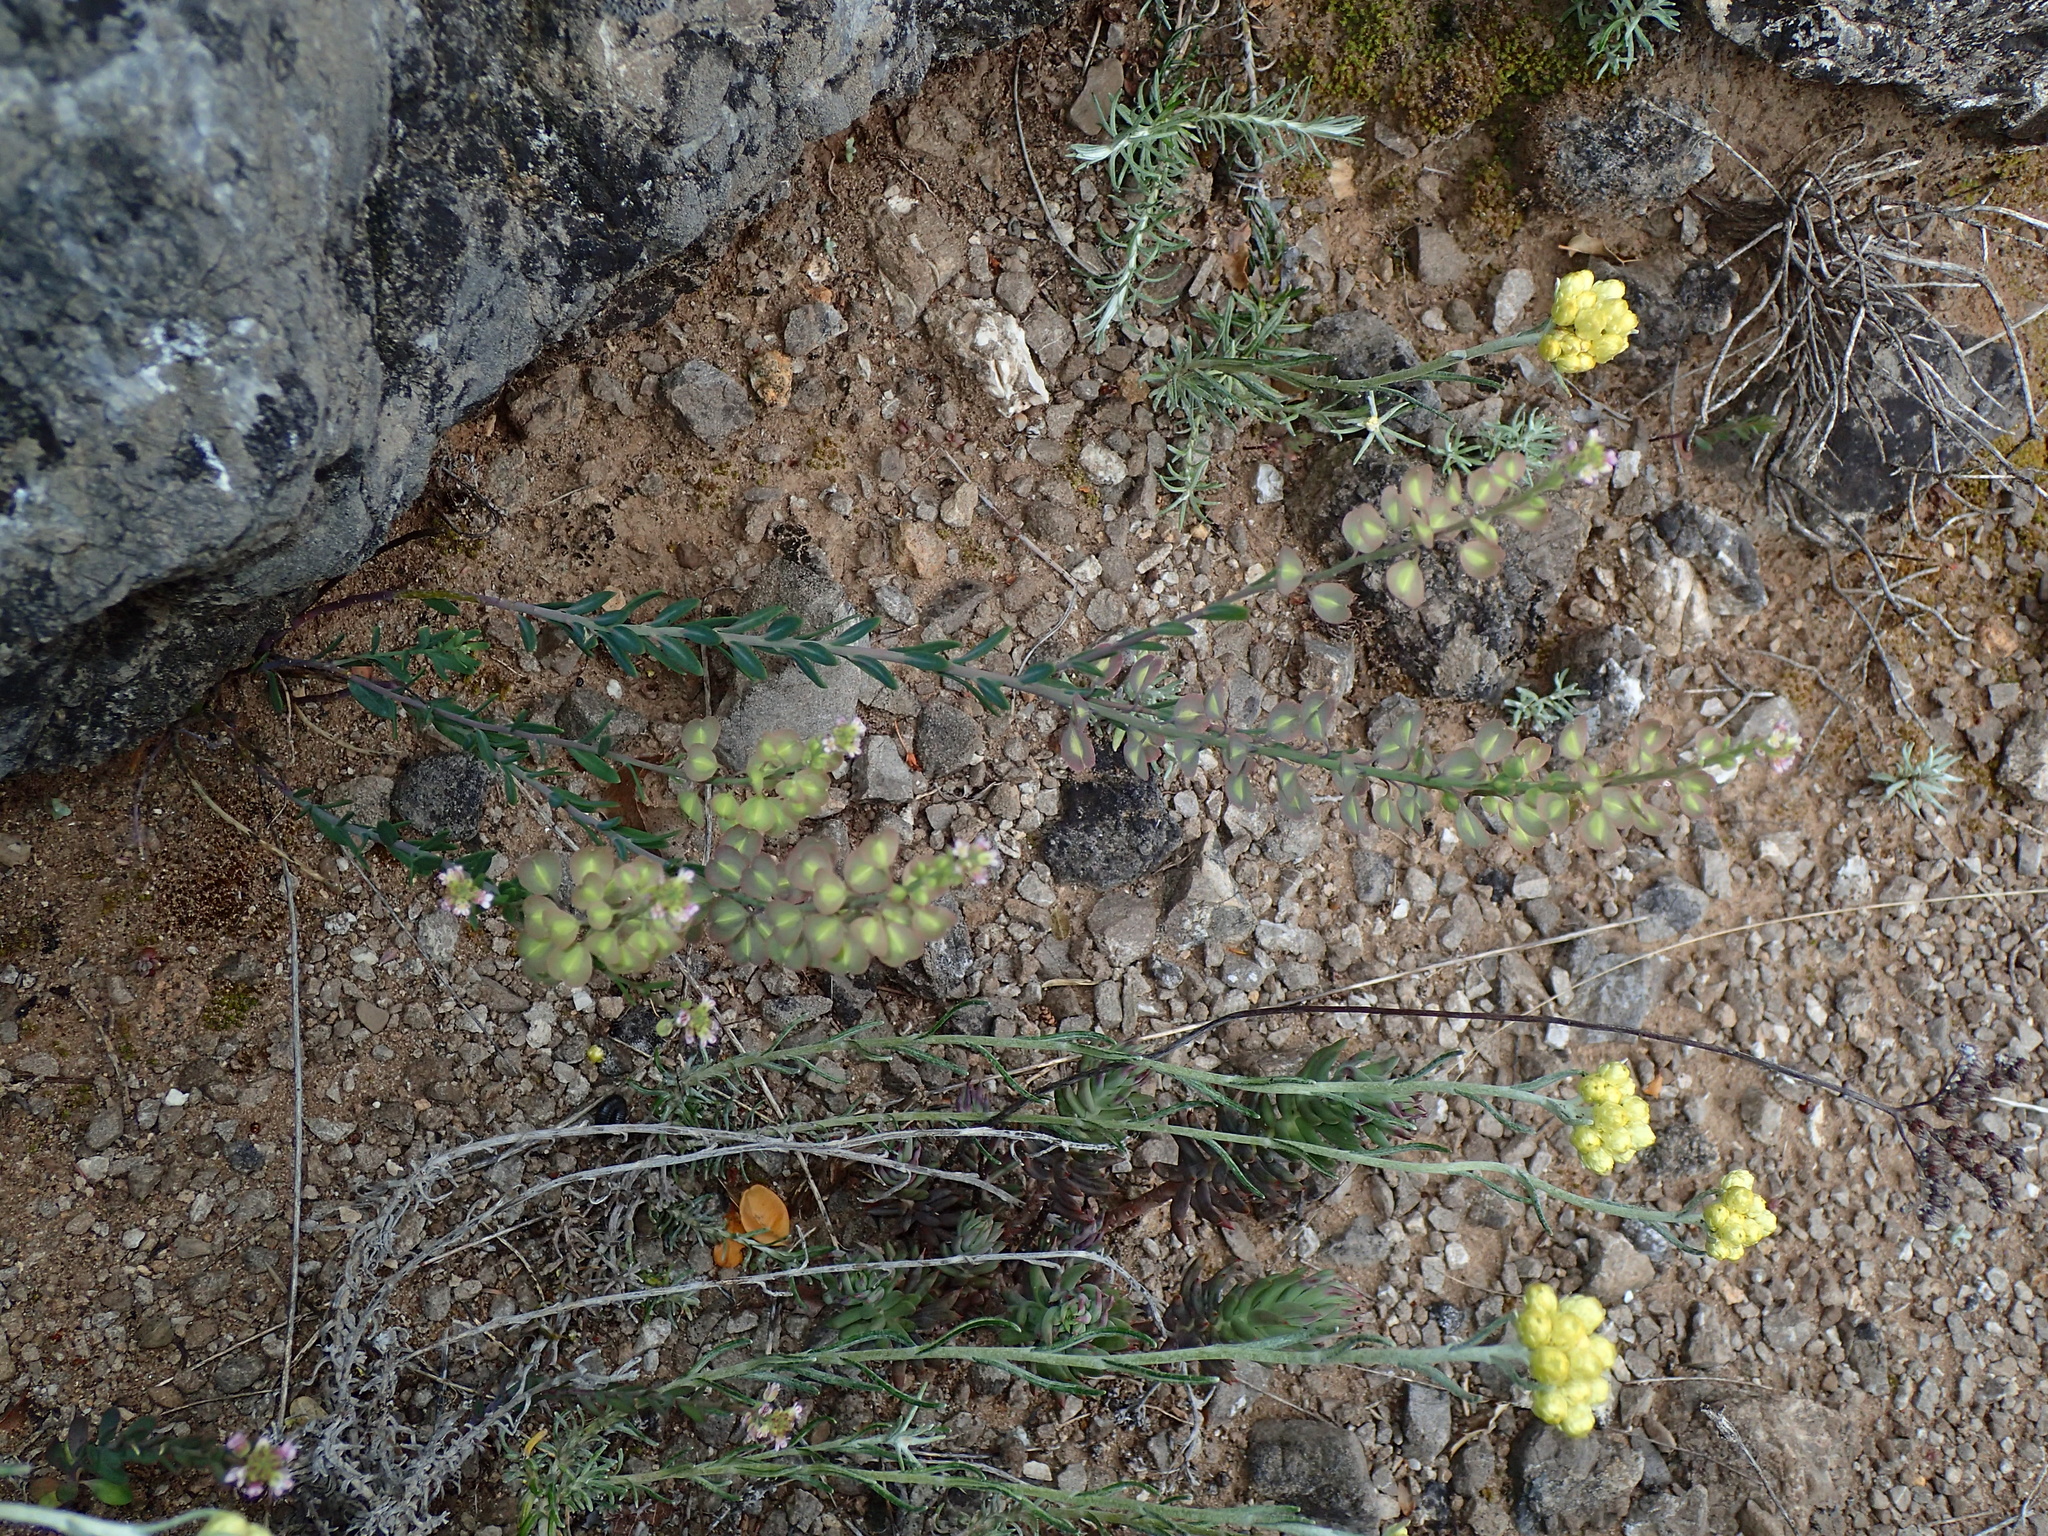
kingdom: Plantae
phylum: Tracheophyta
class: Magnoliopsida
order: Brassicales
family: Brassicaceae
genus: Aethionema
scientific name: Aethionema saxatile
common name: Burnt candytuft
